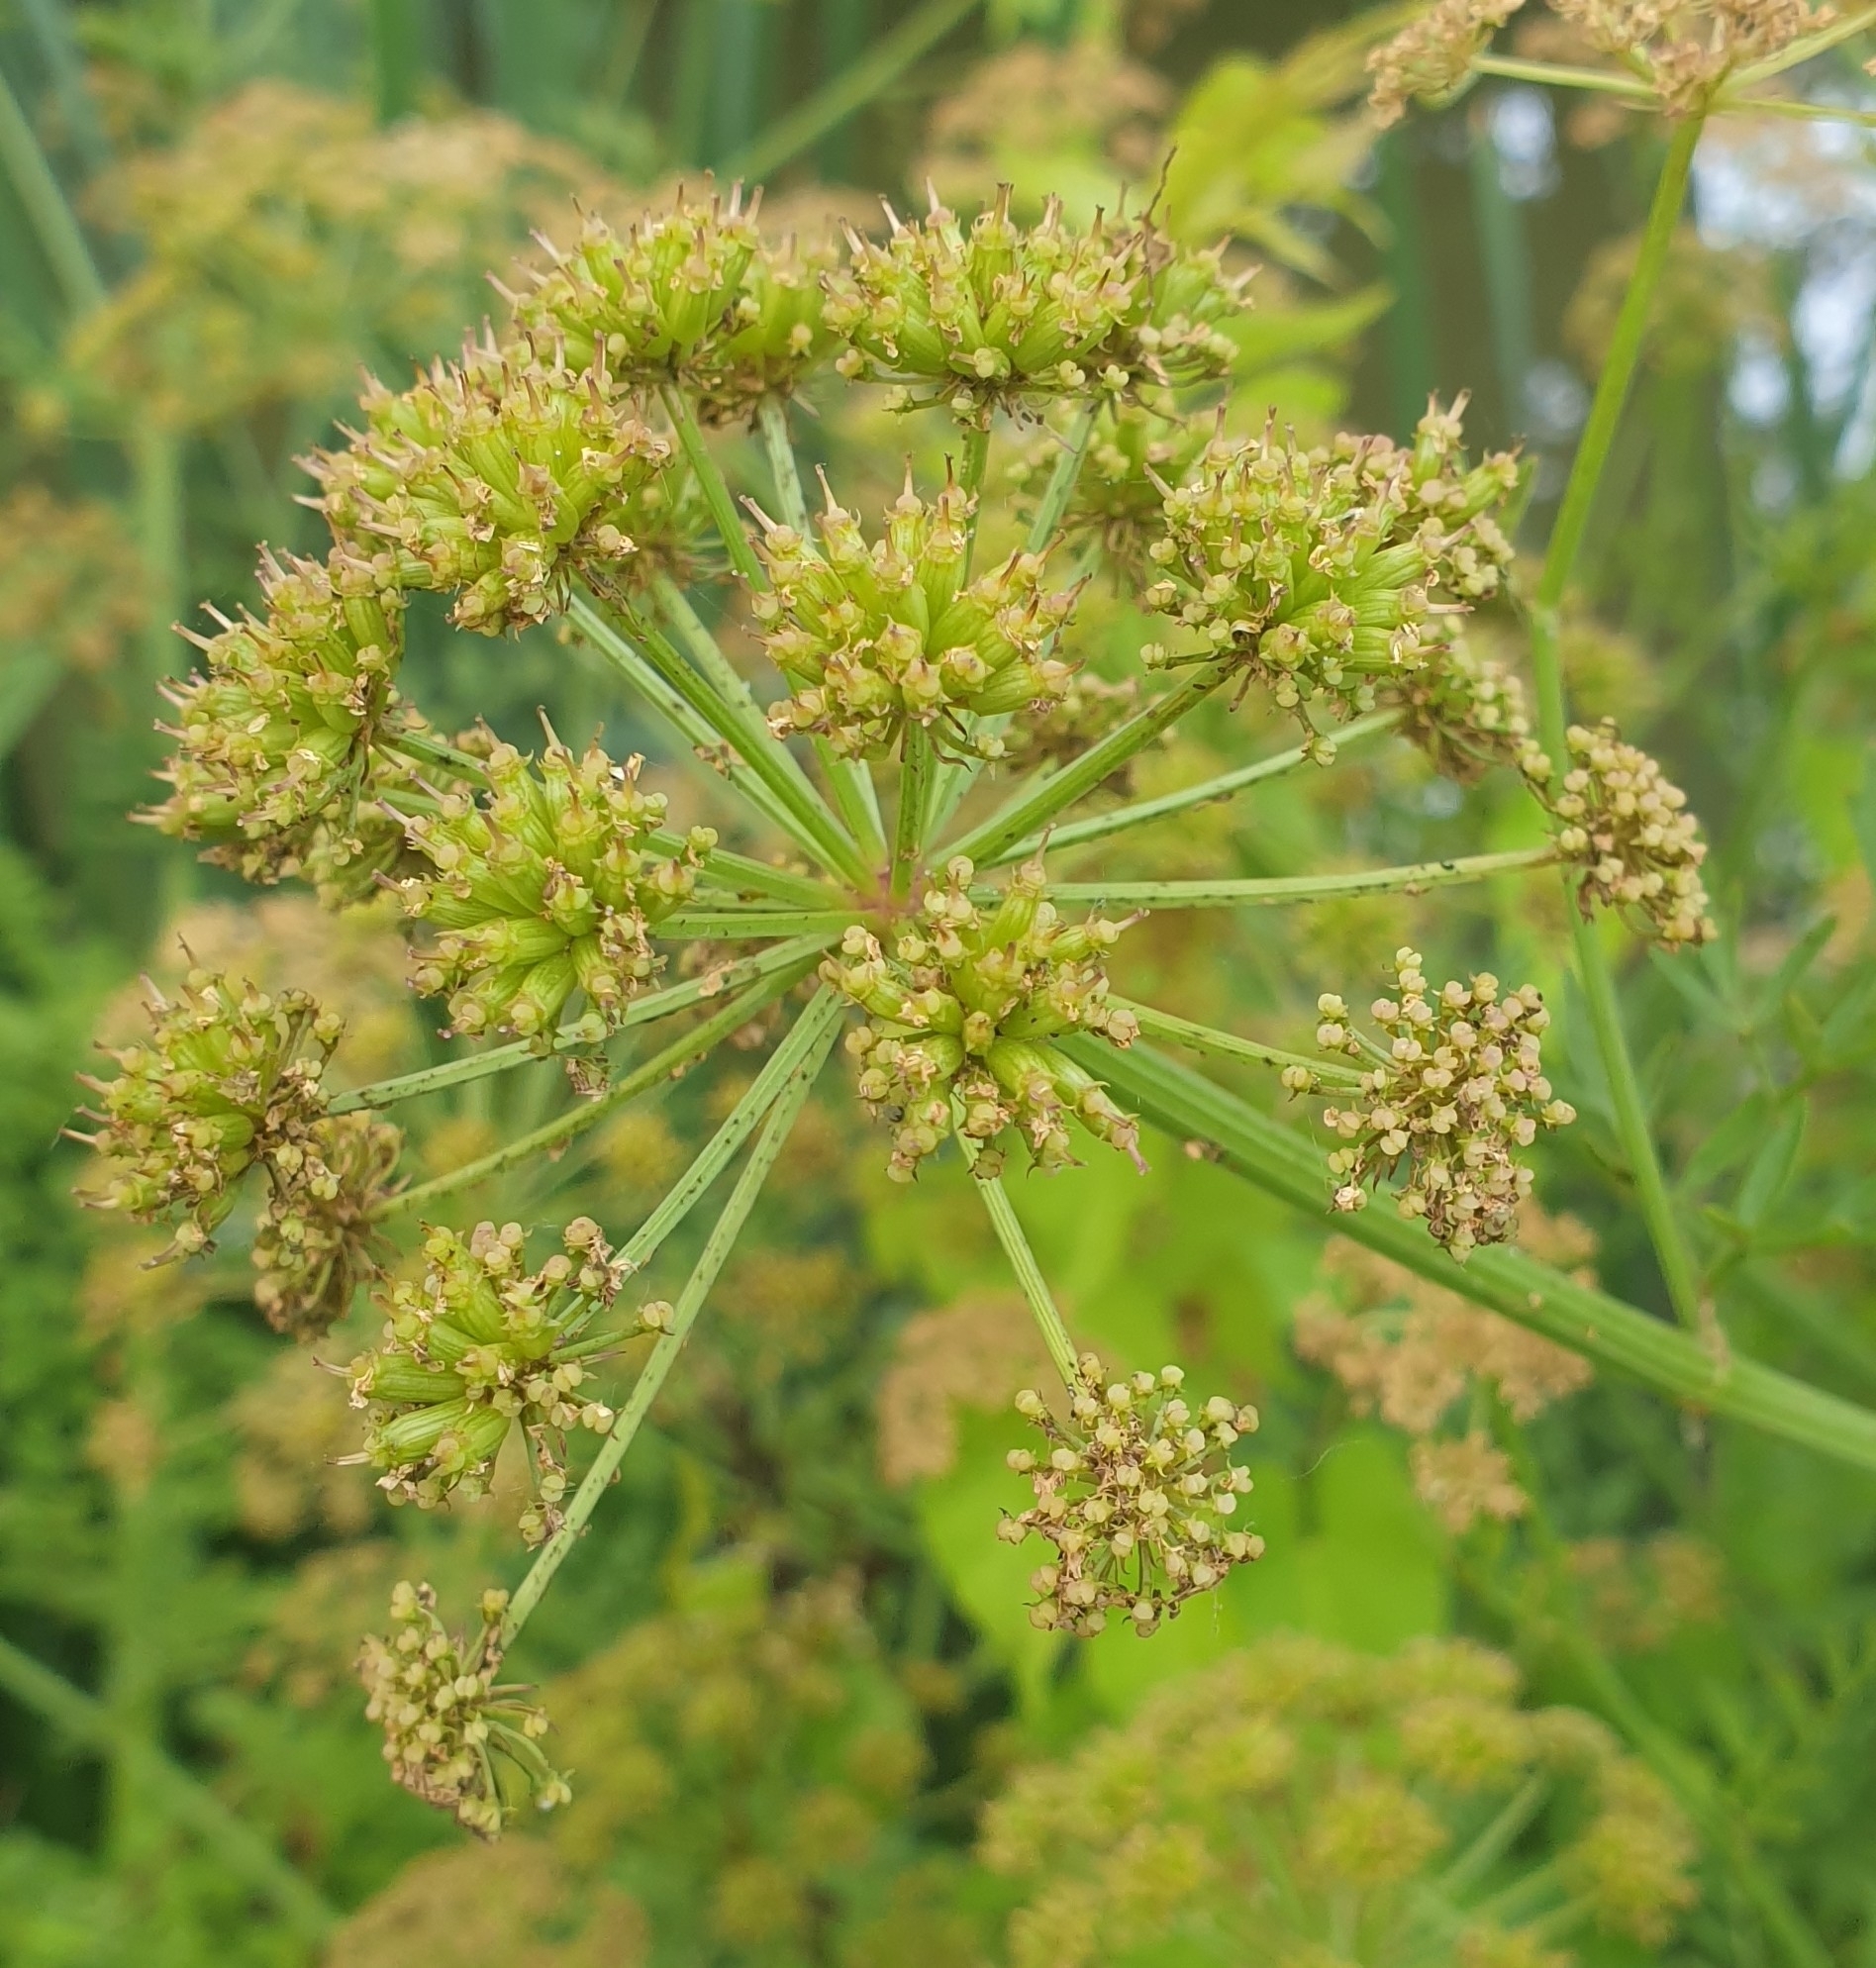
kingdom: Plantae
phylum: Tracheophyta
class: Magnoliopsida
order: Apiales
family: Apiaceae
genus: Oenanthe
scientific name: Oenanthe crocata
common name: Hemlock water-dropwort
